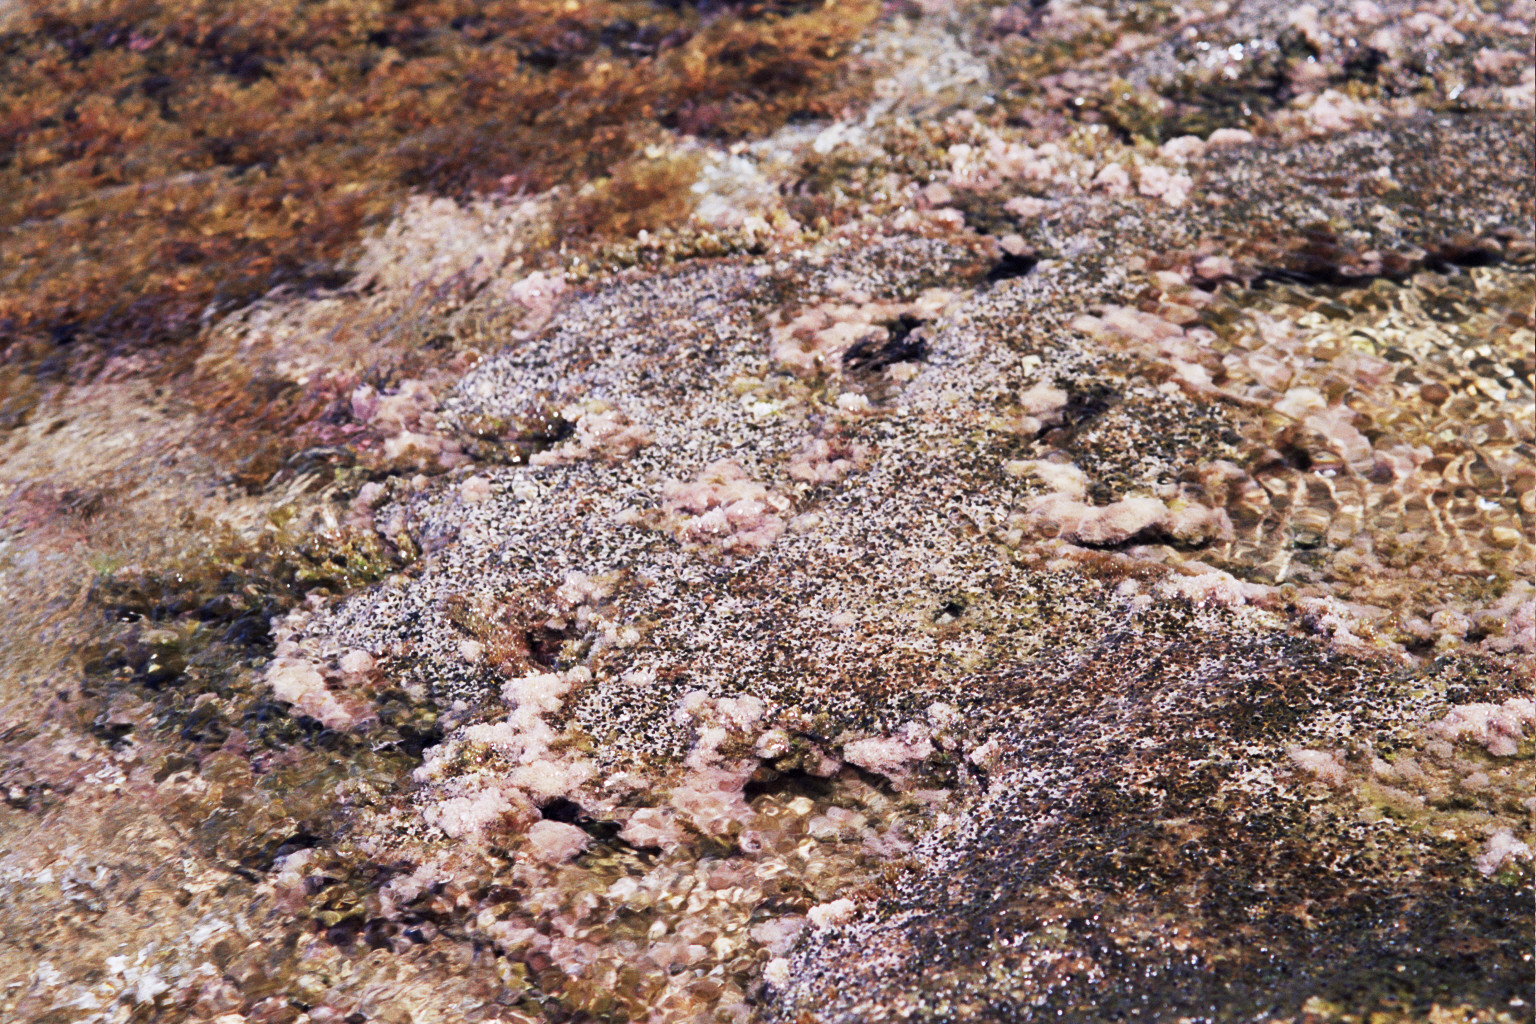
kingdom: Animalia
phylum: Mollusca
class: Gastropoda
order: Littorinimorpha
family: Vermetidae
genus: Dendropoma
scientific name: Dendropoma lebeche
